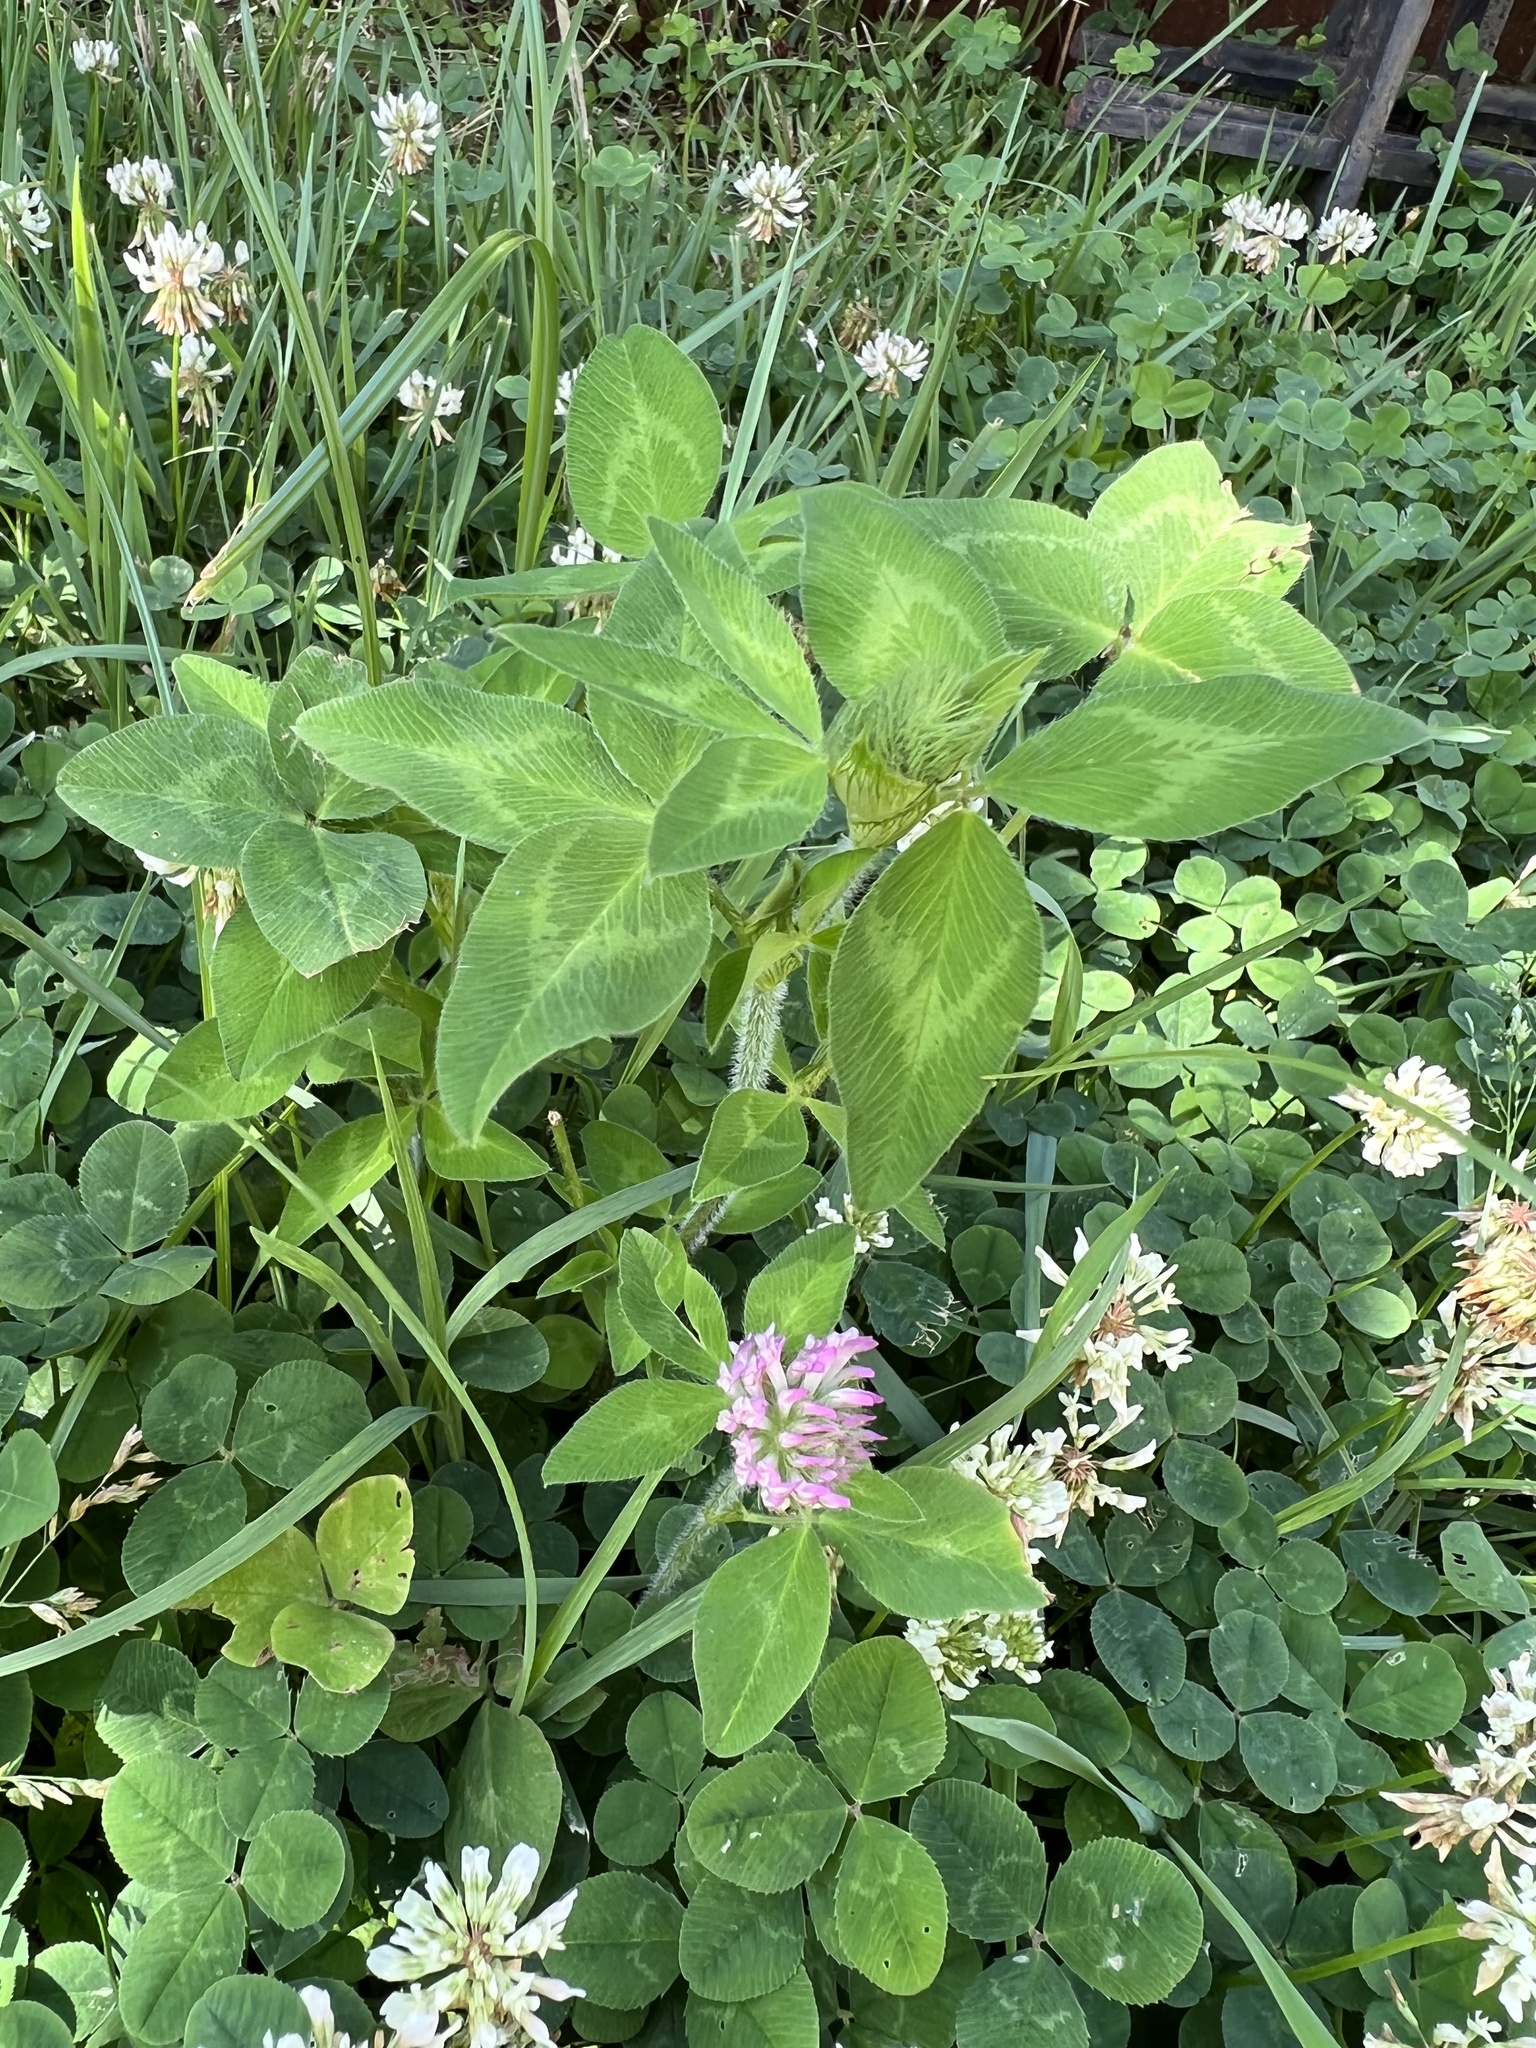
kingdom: Plantae
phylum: Tracheophyta
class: Magnoliopsida
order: Fabales
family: Fabaceae
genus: Trifolium
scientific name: Trifolium pratense
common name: Red clover
